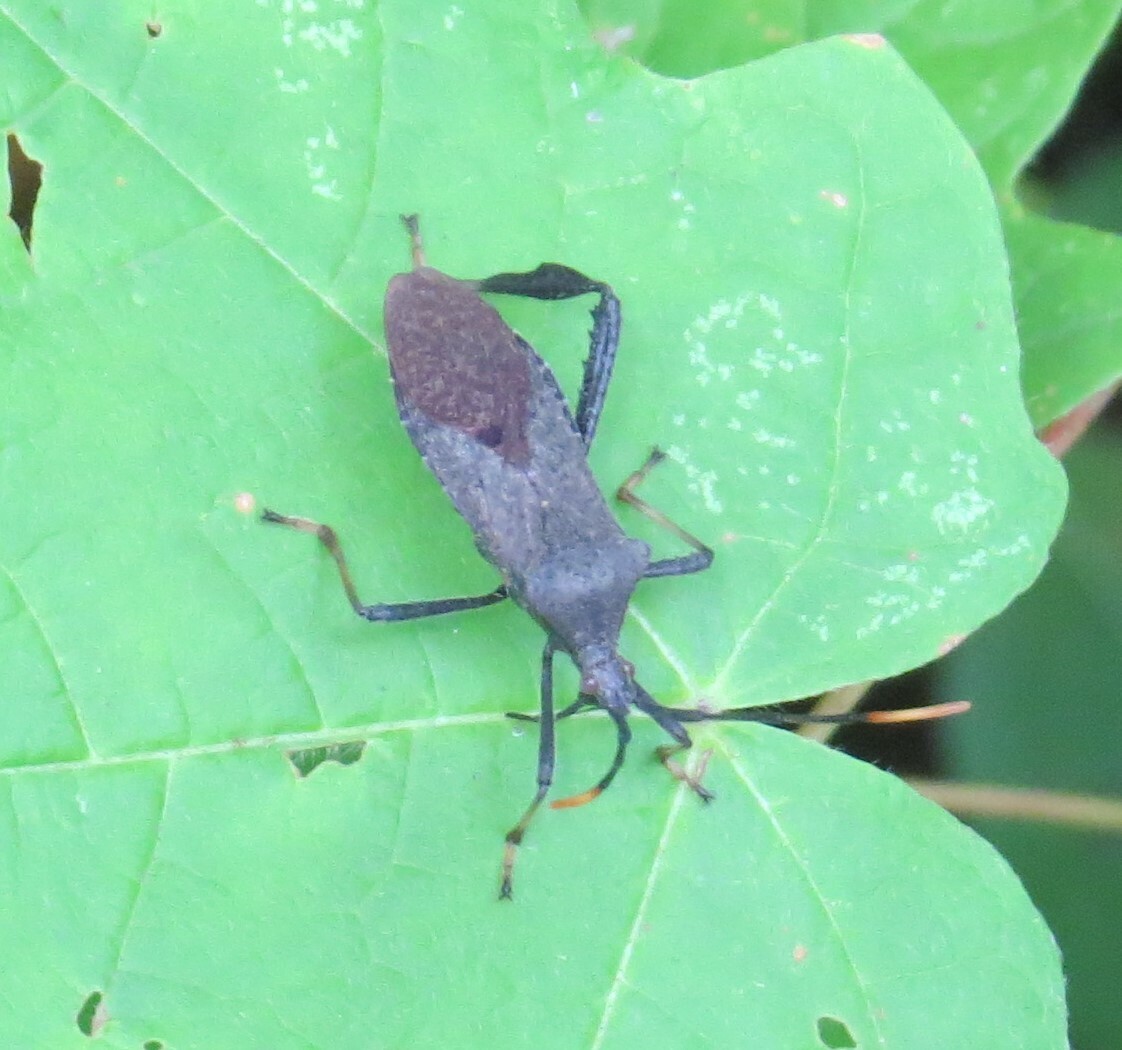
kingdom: Animalia
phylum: Arthropoda
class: Insecta
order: Hemiptera
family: Coreidae
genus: Acanthocephala
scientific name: Acanthocephala terminalis
